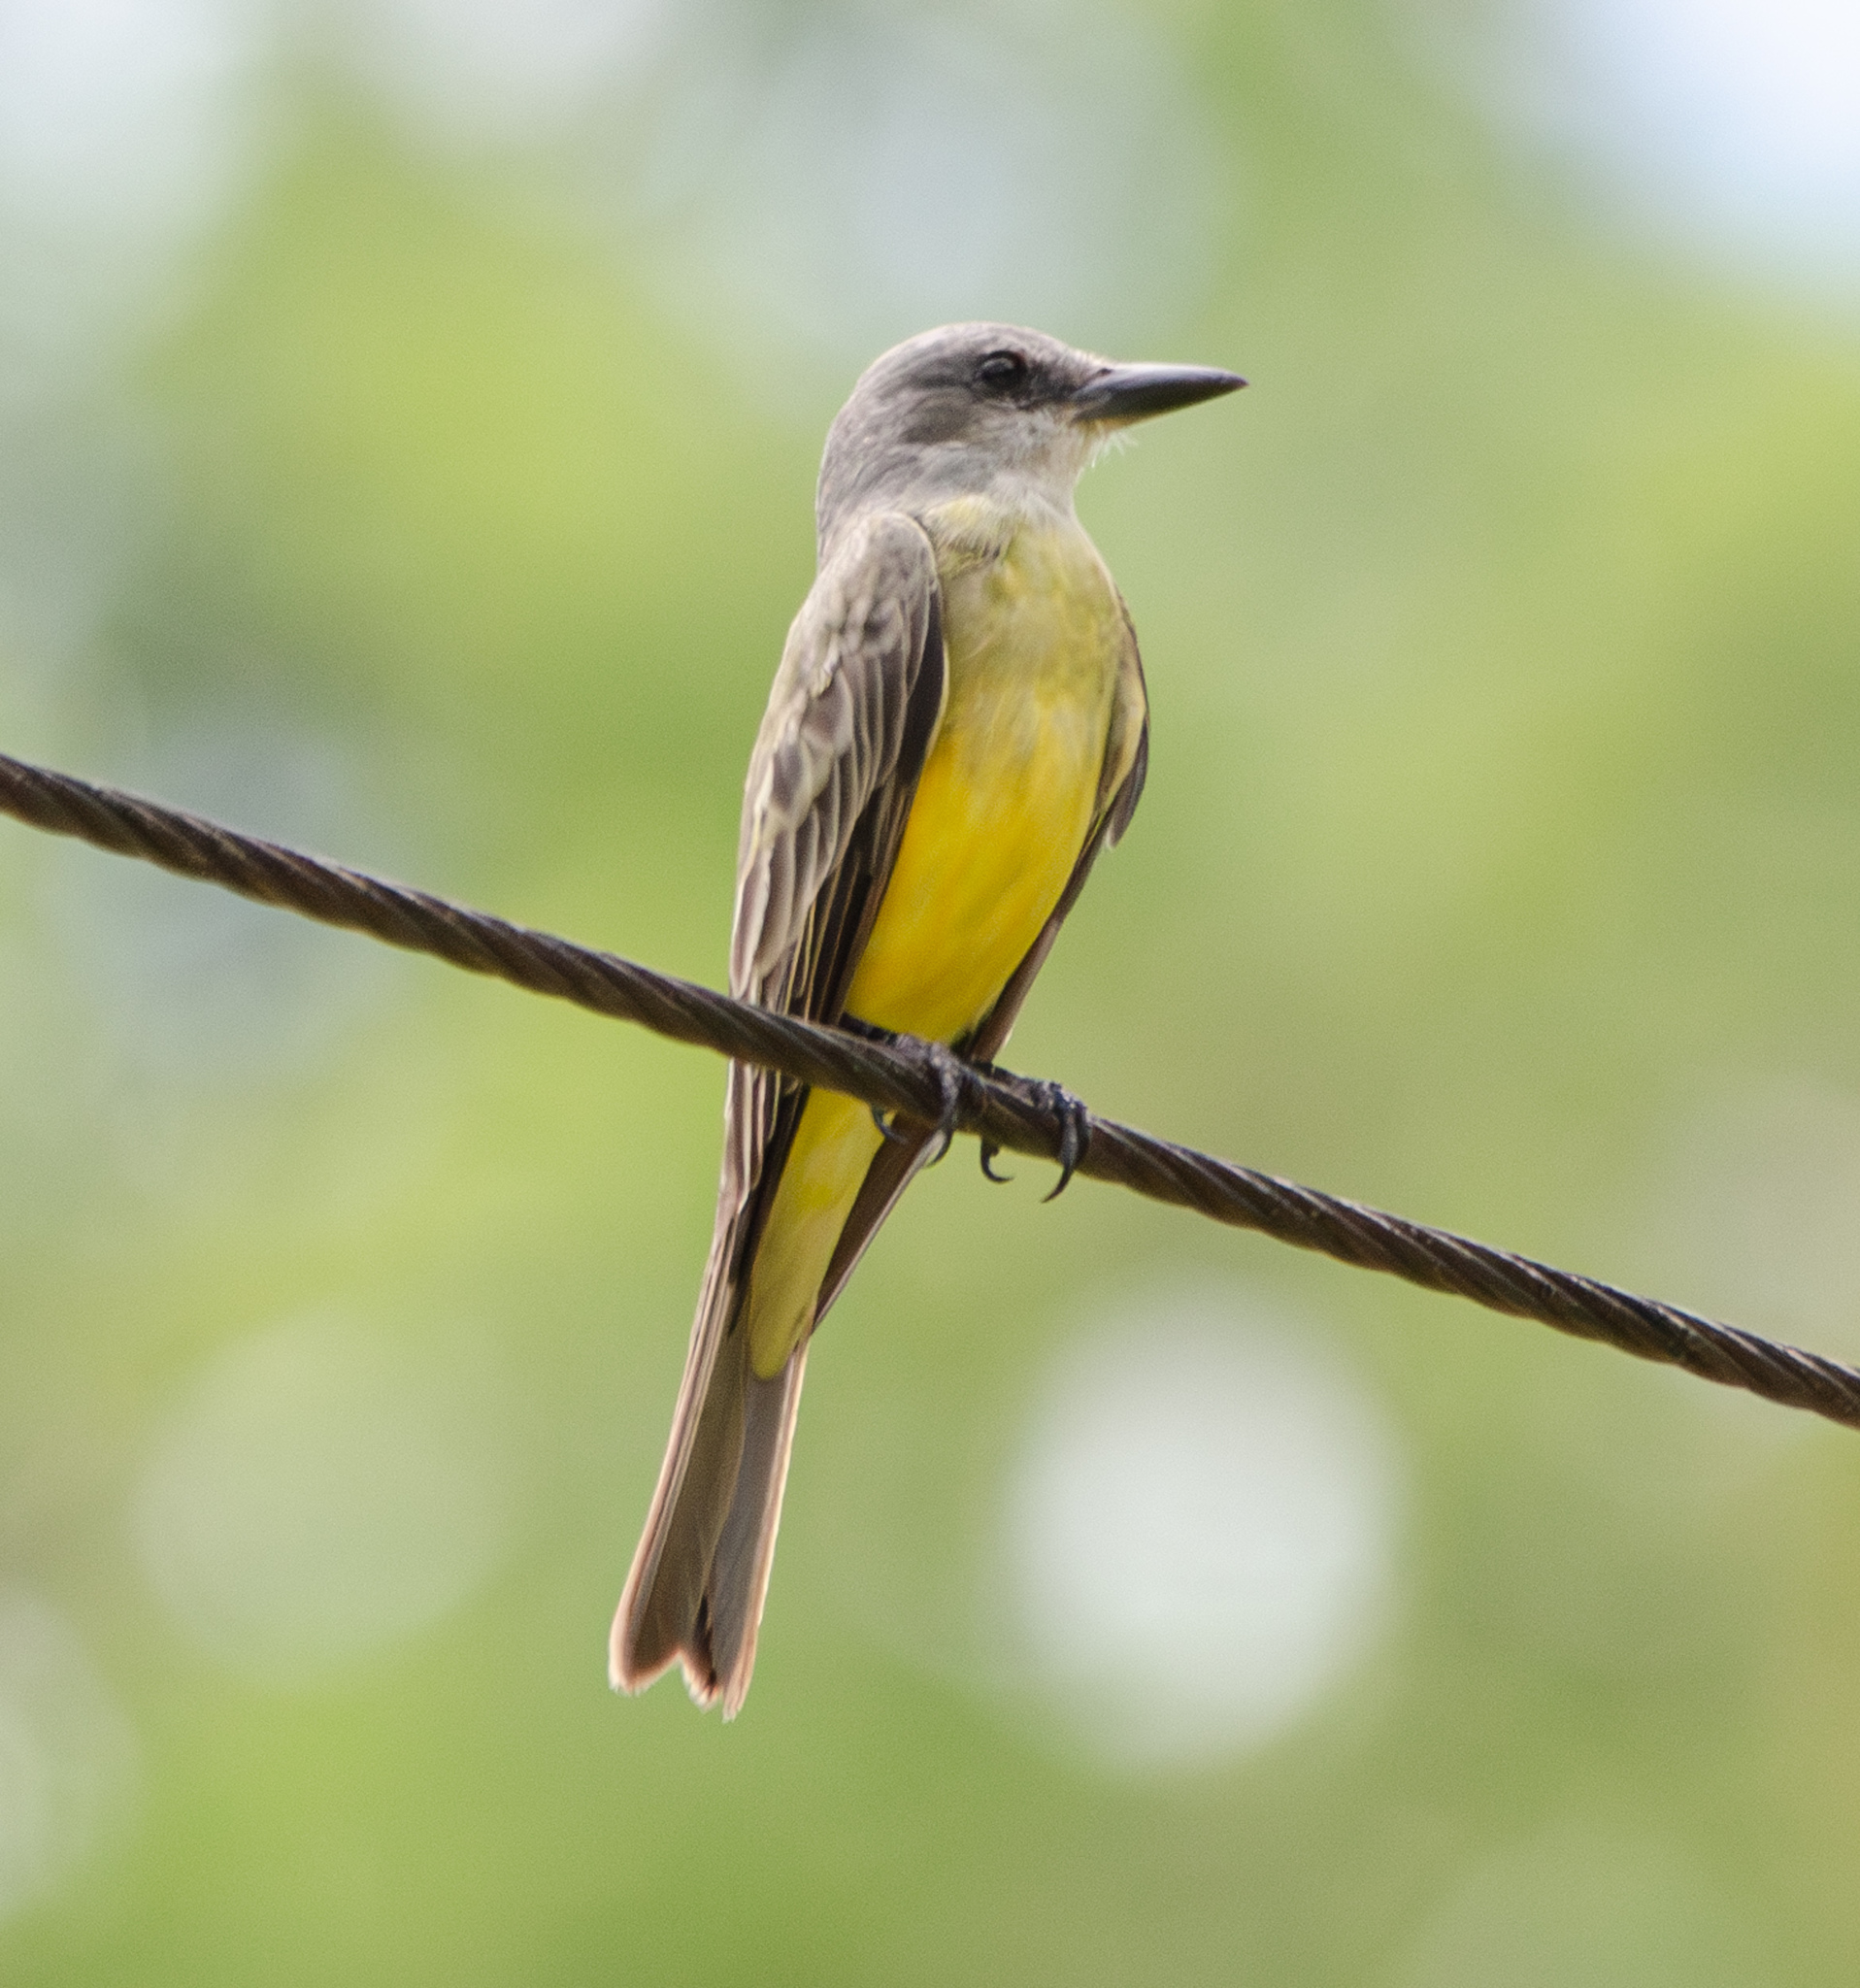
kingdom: Animalia
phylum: Chordata
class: Aves
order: Passeriformes
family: Tyrannidae
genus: Tyrannus
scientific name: Tyrannus melancholicus
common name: Tropical kingbird
